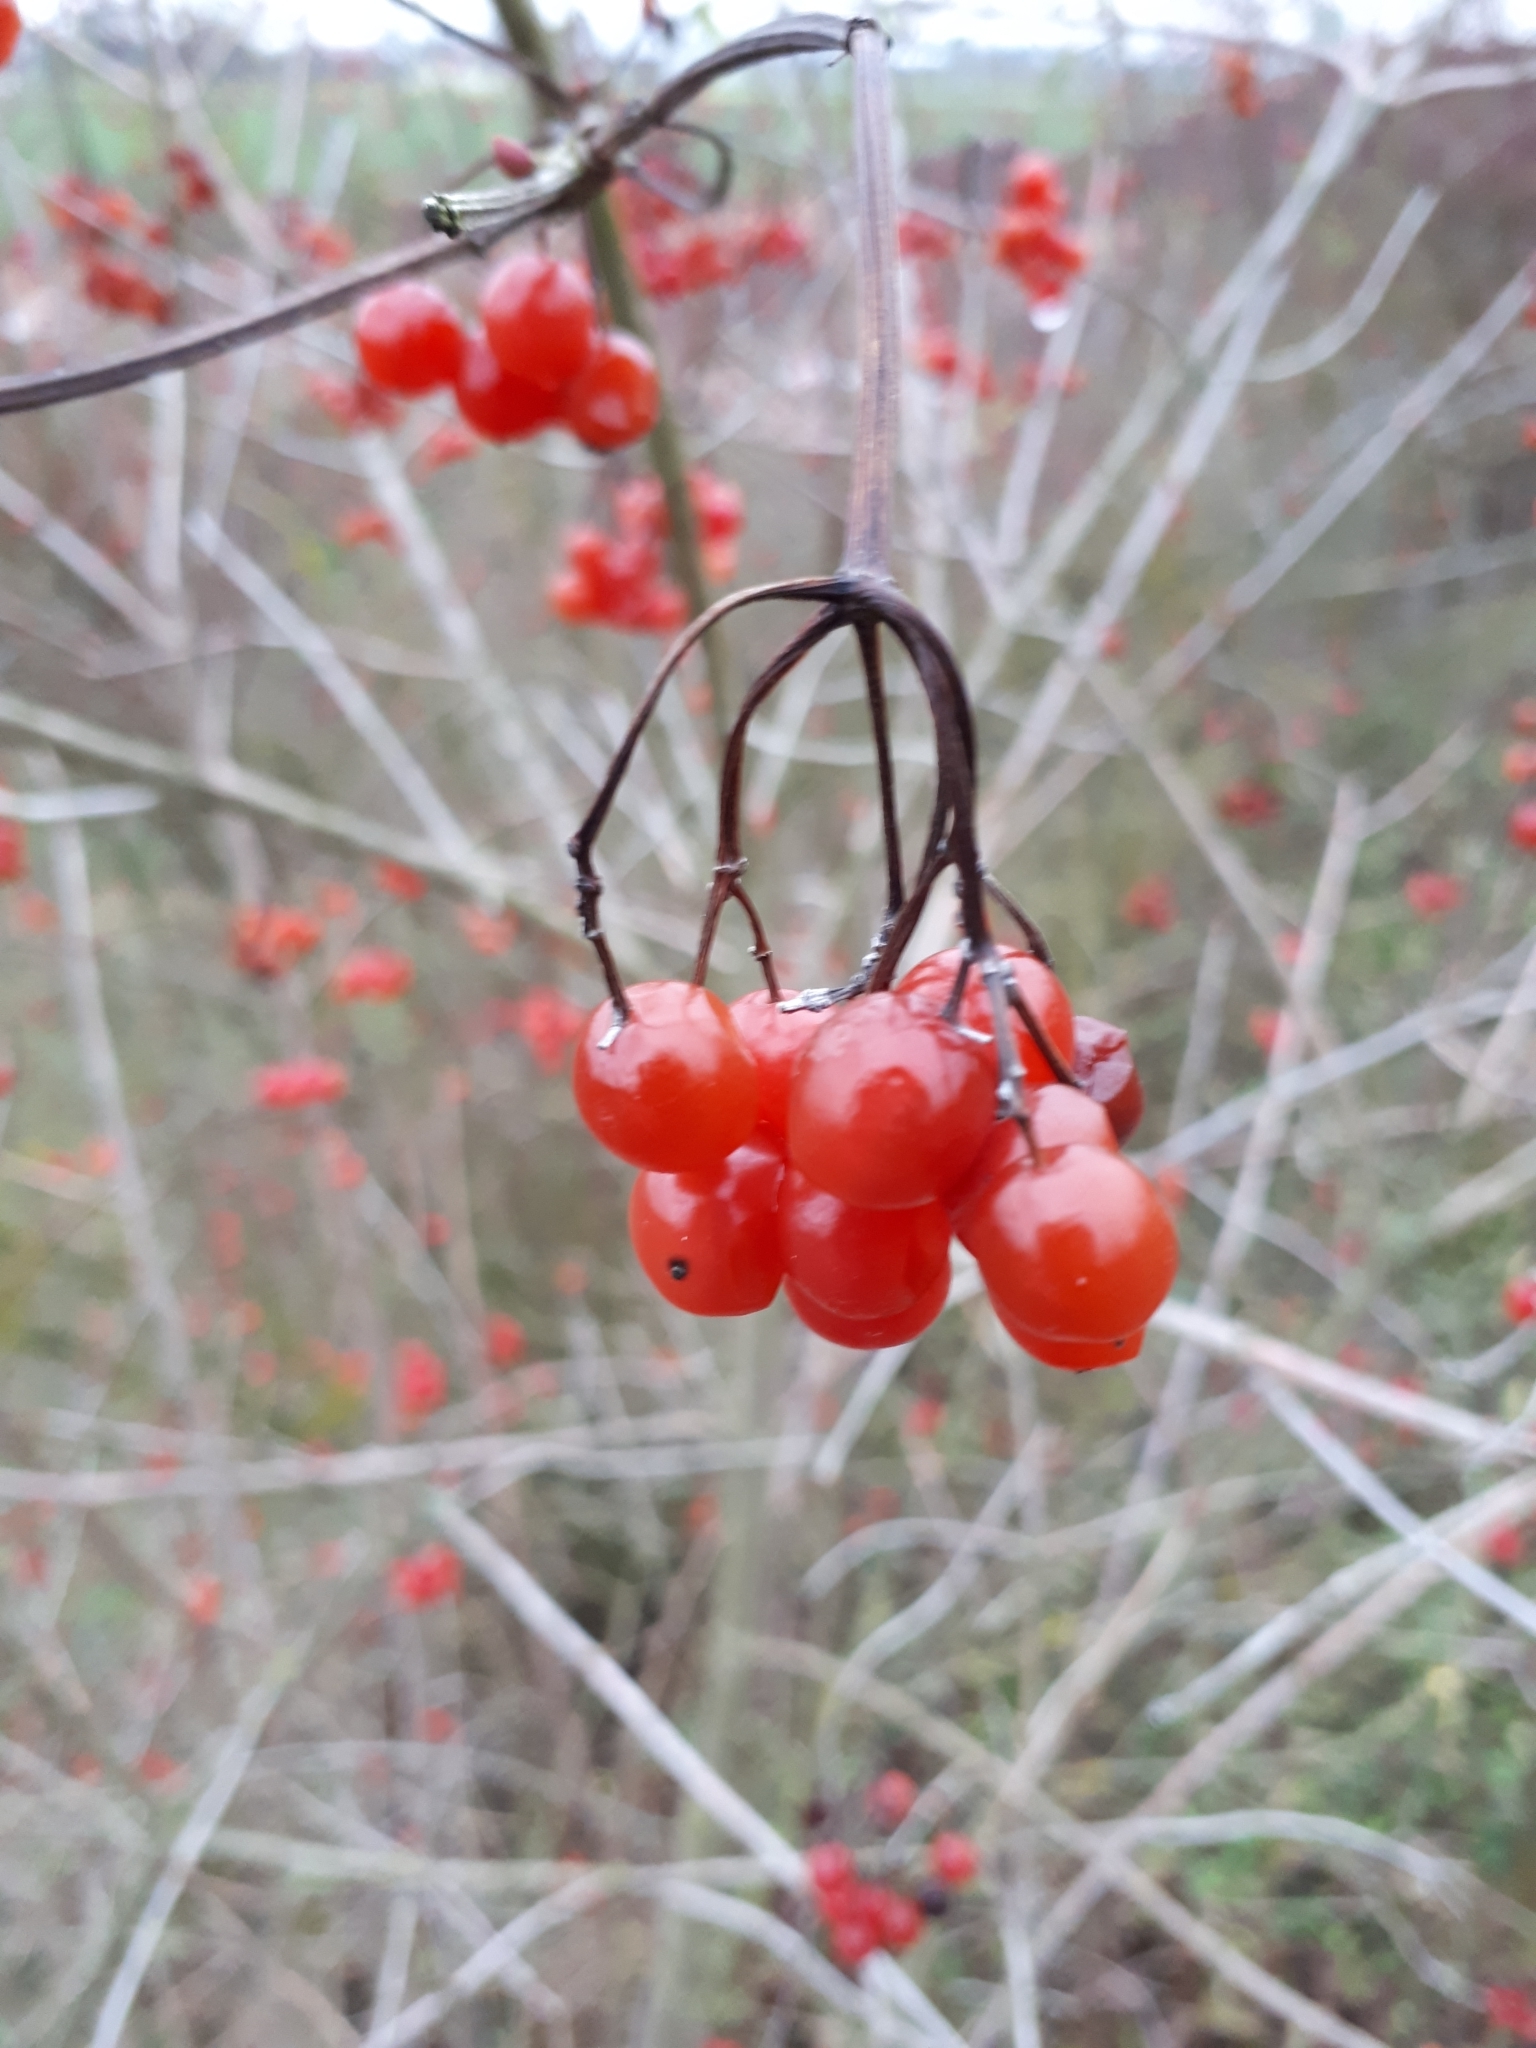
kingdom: Plantae
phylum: Tracheophyta
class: Magnoliopsida
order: Dipsacales
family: Viburnaceae
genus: Viburnum
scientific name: Viburnum opulus
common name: Guelder-rose
